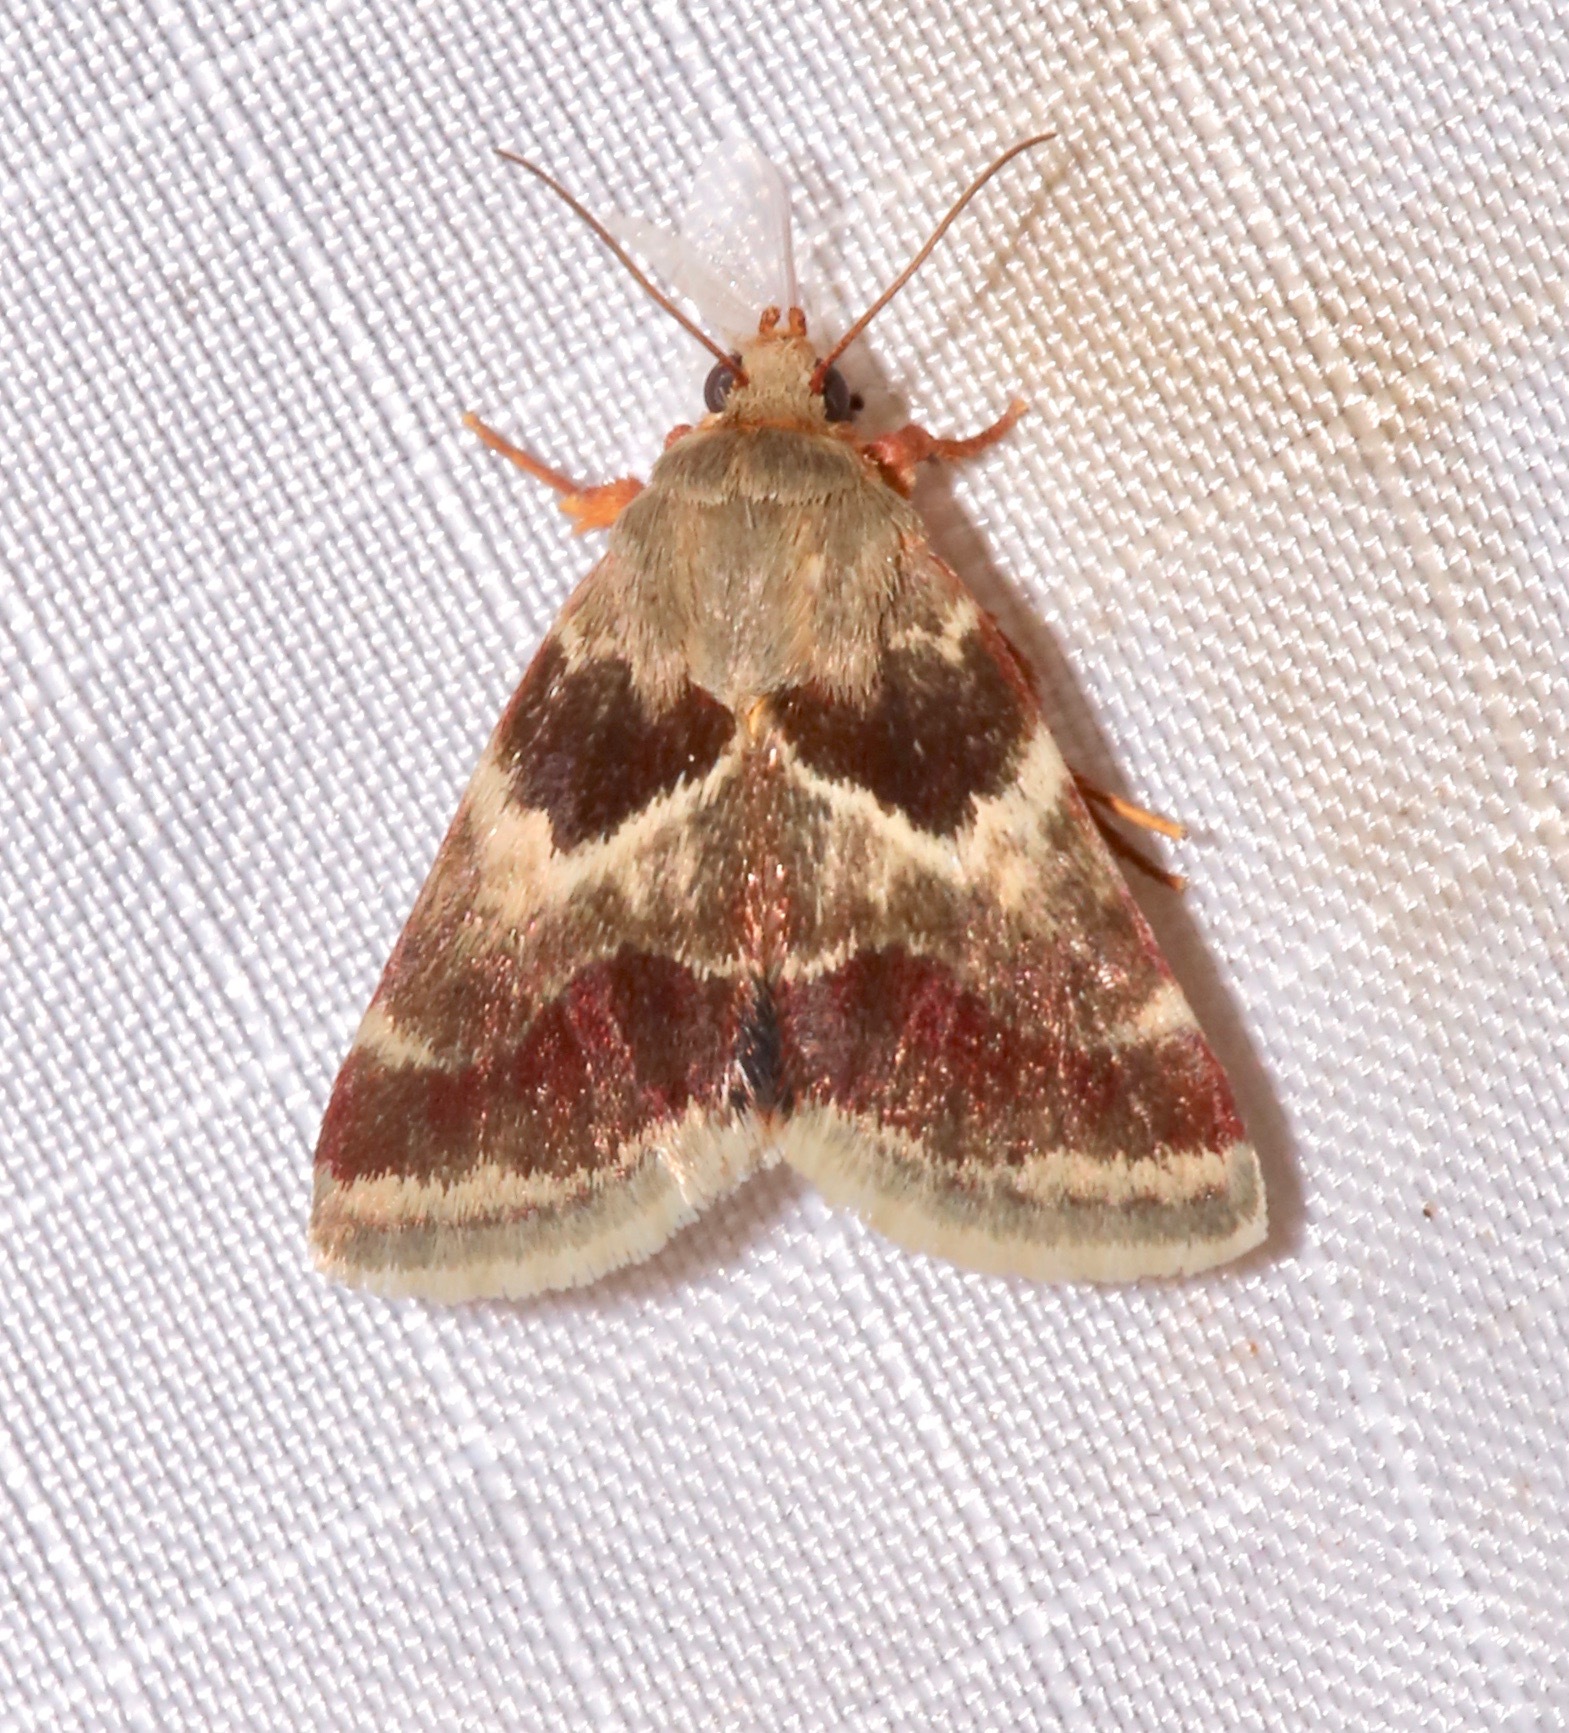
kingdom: Animalia
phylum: Arthropoda
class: Insecta
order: Lepidoptera
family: Noctuidae
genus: Schinia
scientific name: Schinia lynx
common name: Lynx flower moth
